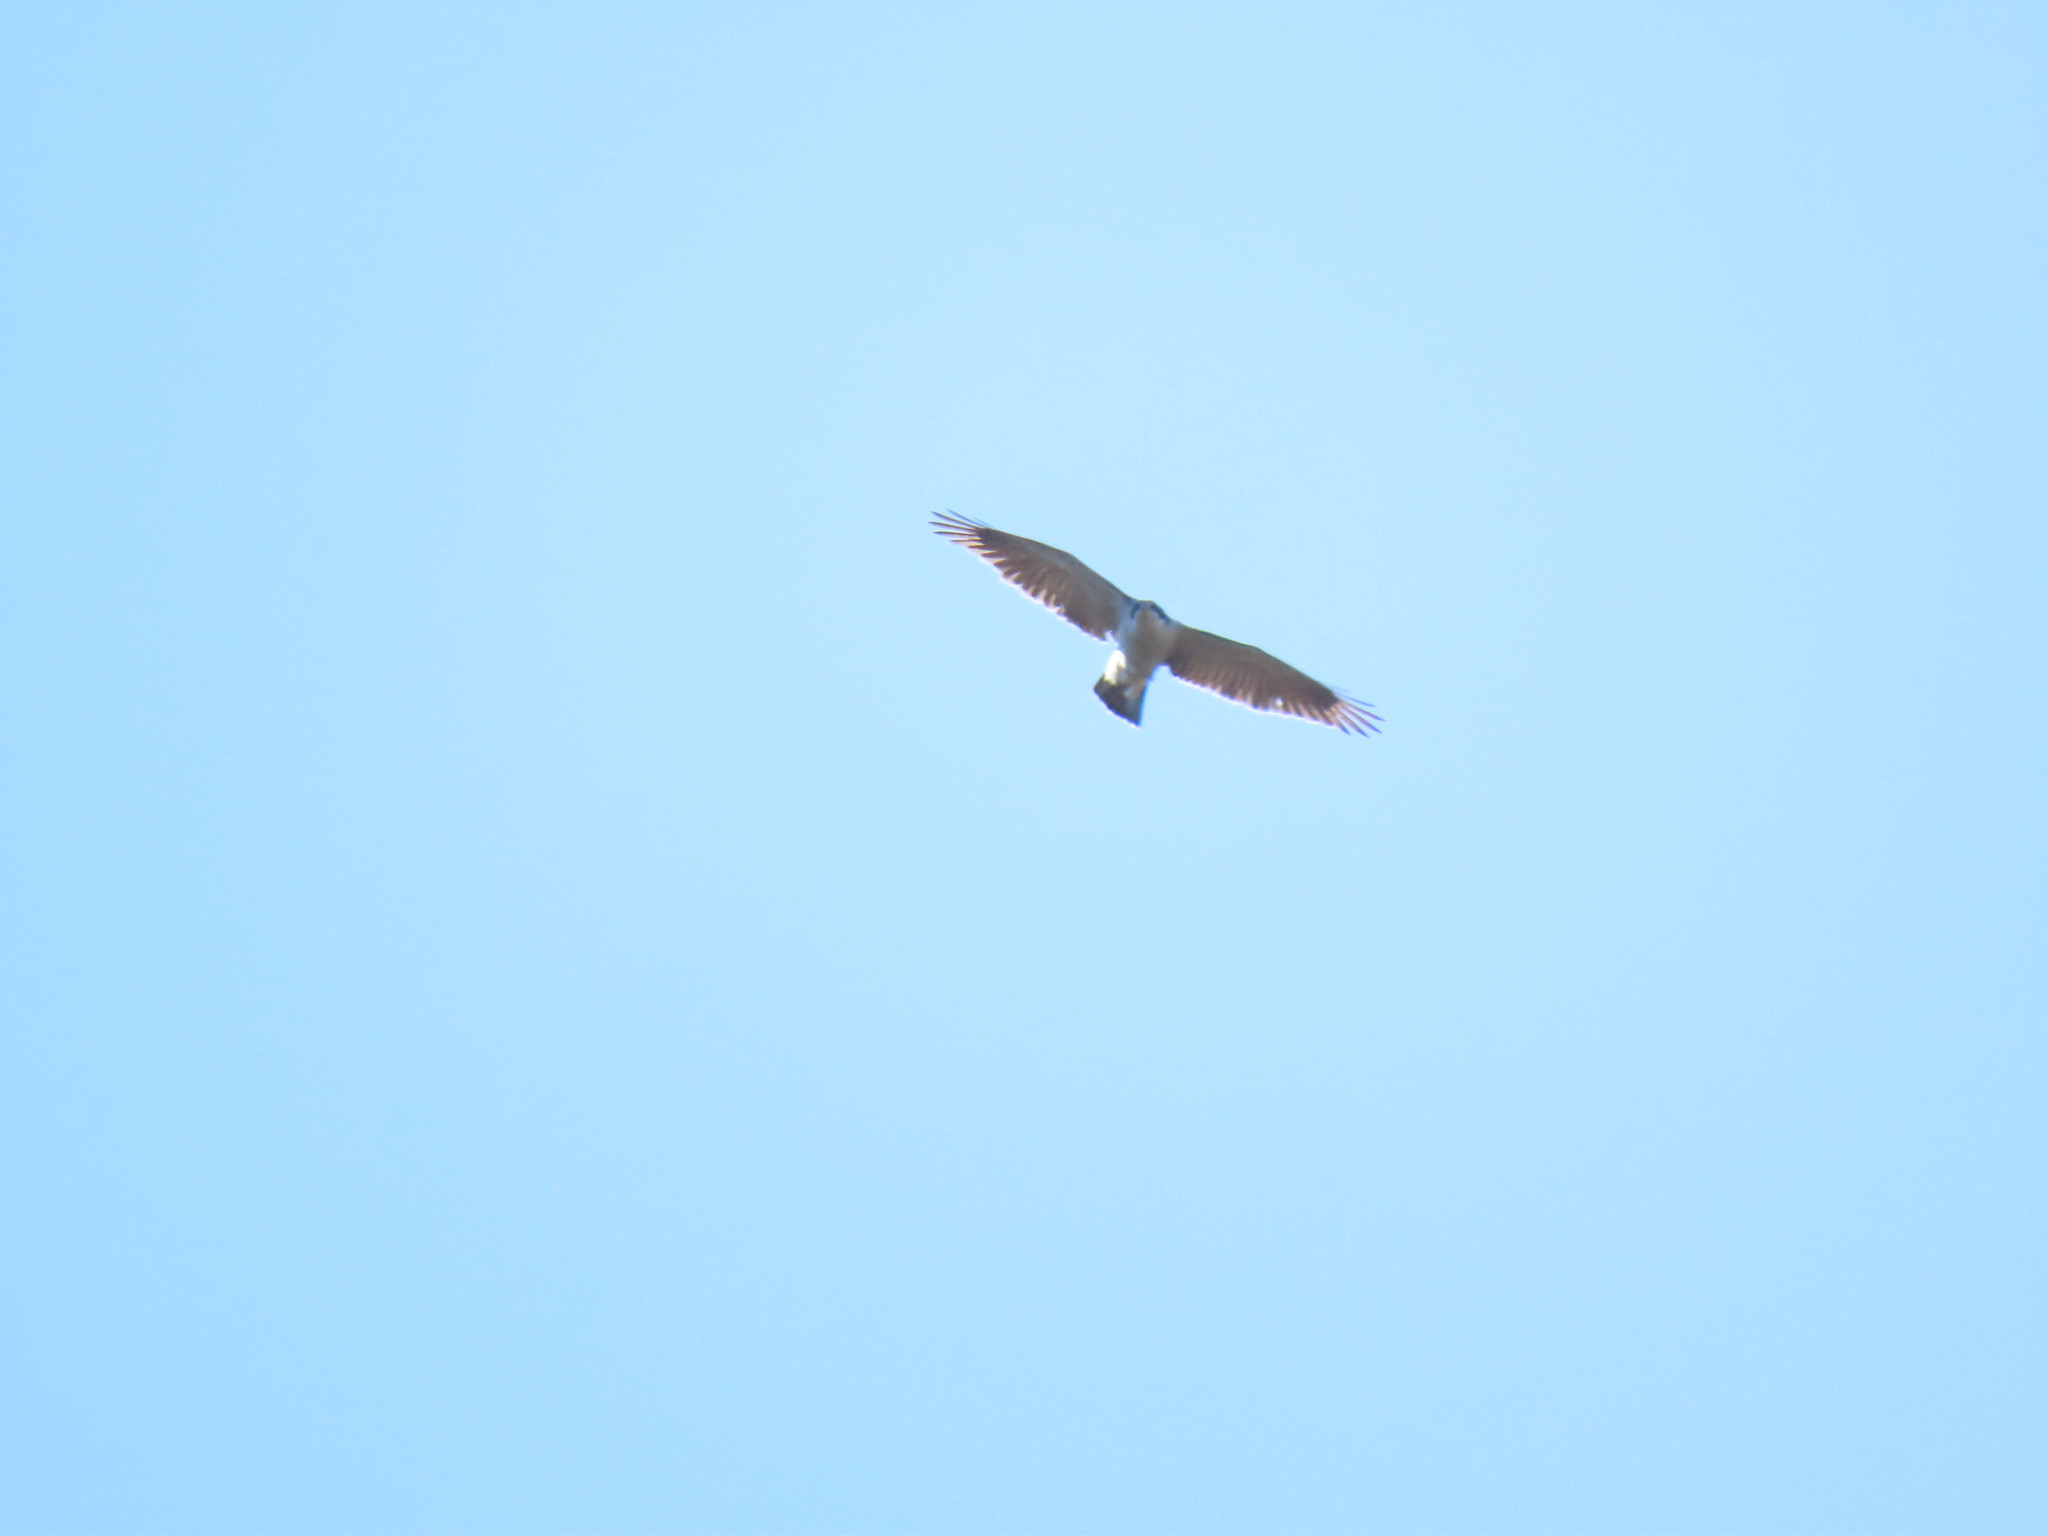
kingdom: Animalia
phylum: Chordata
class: Aves
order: Accipitriformes
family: Accipitridae
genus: Accipiter
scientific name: Accipiter gentilis
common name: Northern goshawk
